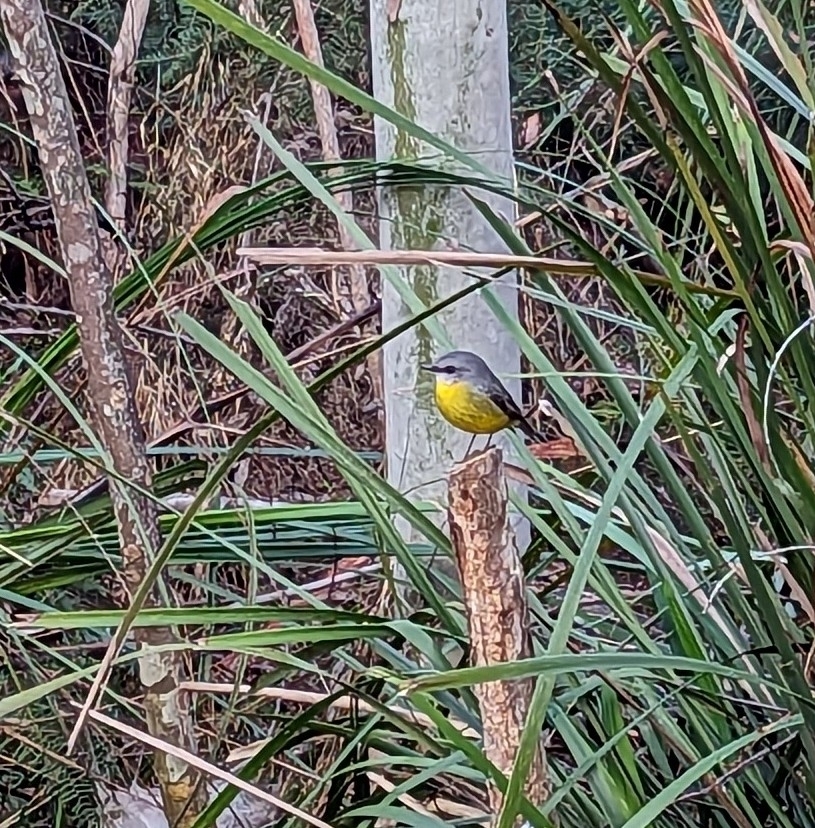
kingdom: Animalia
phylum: Chordata
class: Aves
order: Passeriformes
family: Petroicidae
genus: Eopsaltria
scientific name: Eopsaltria australis
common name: Eastern yellow robin
